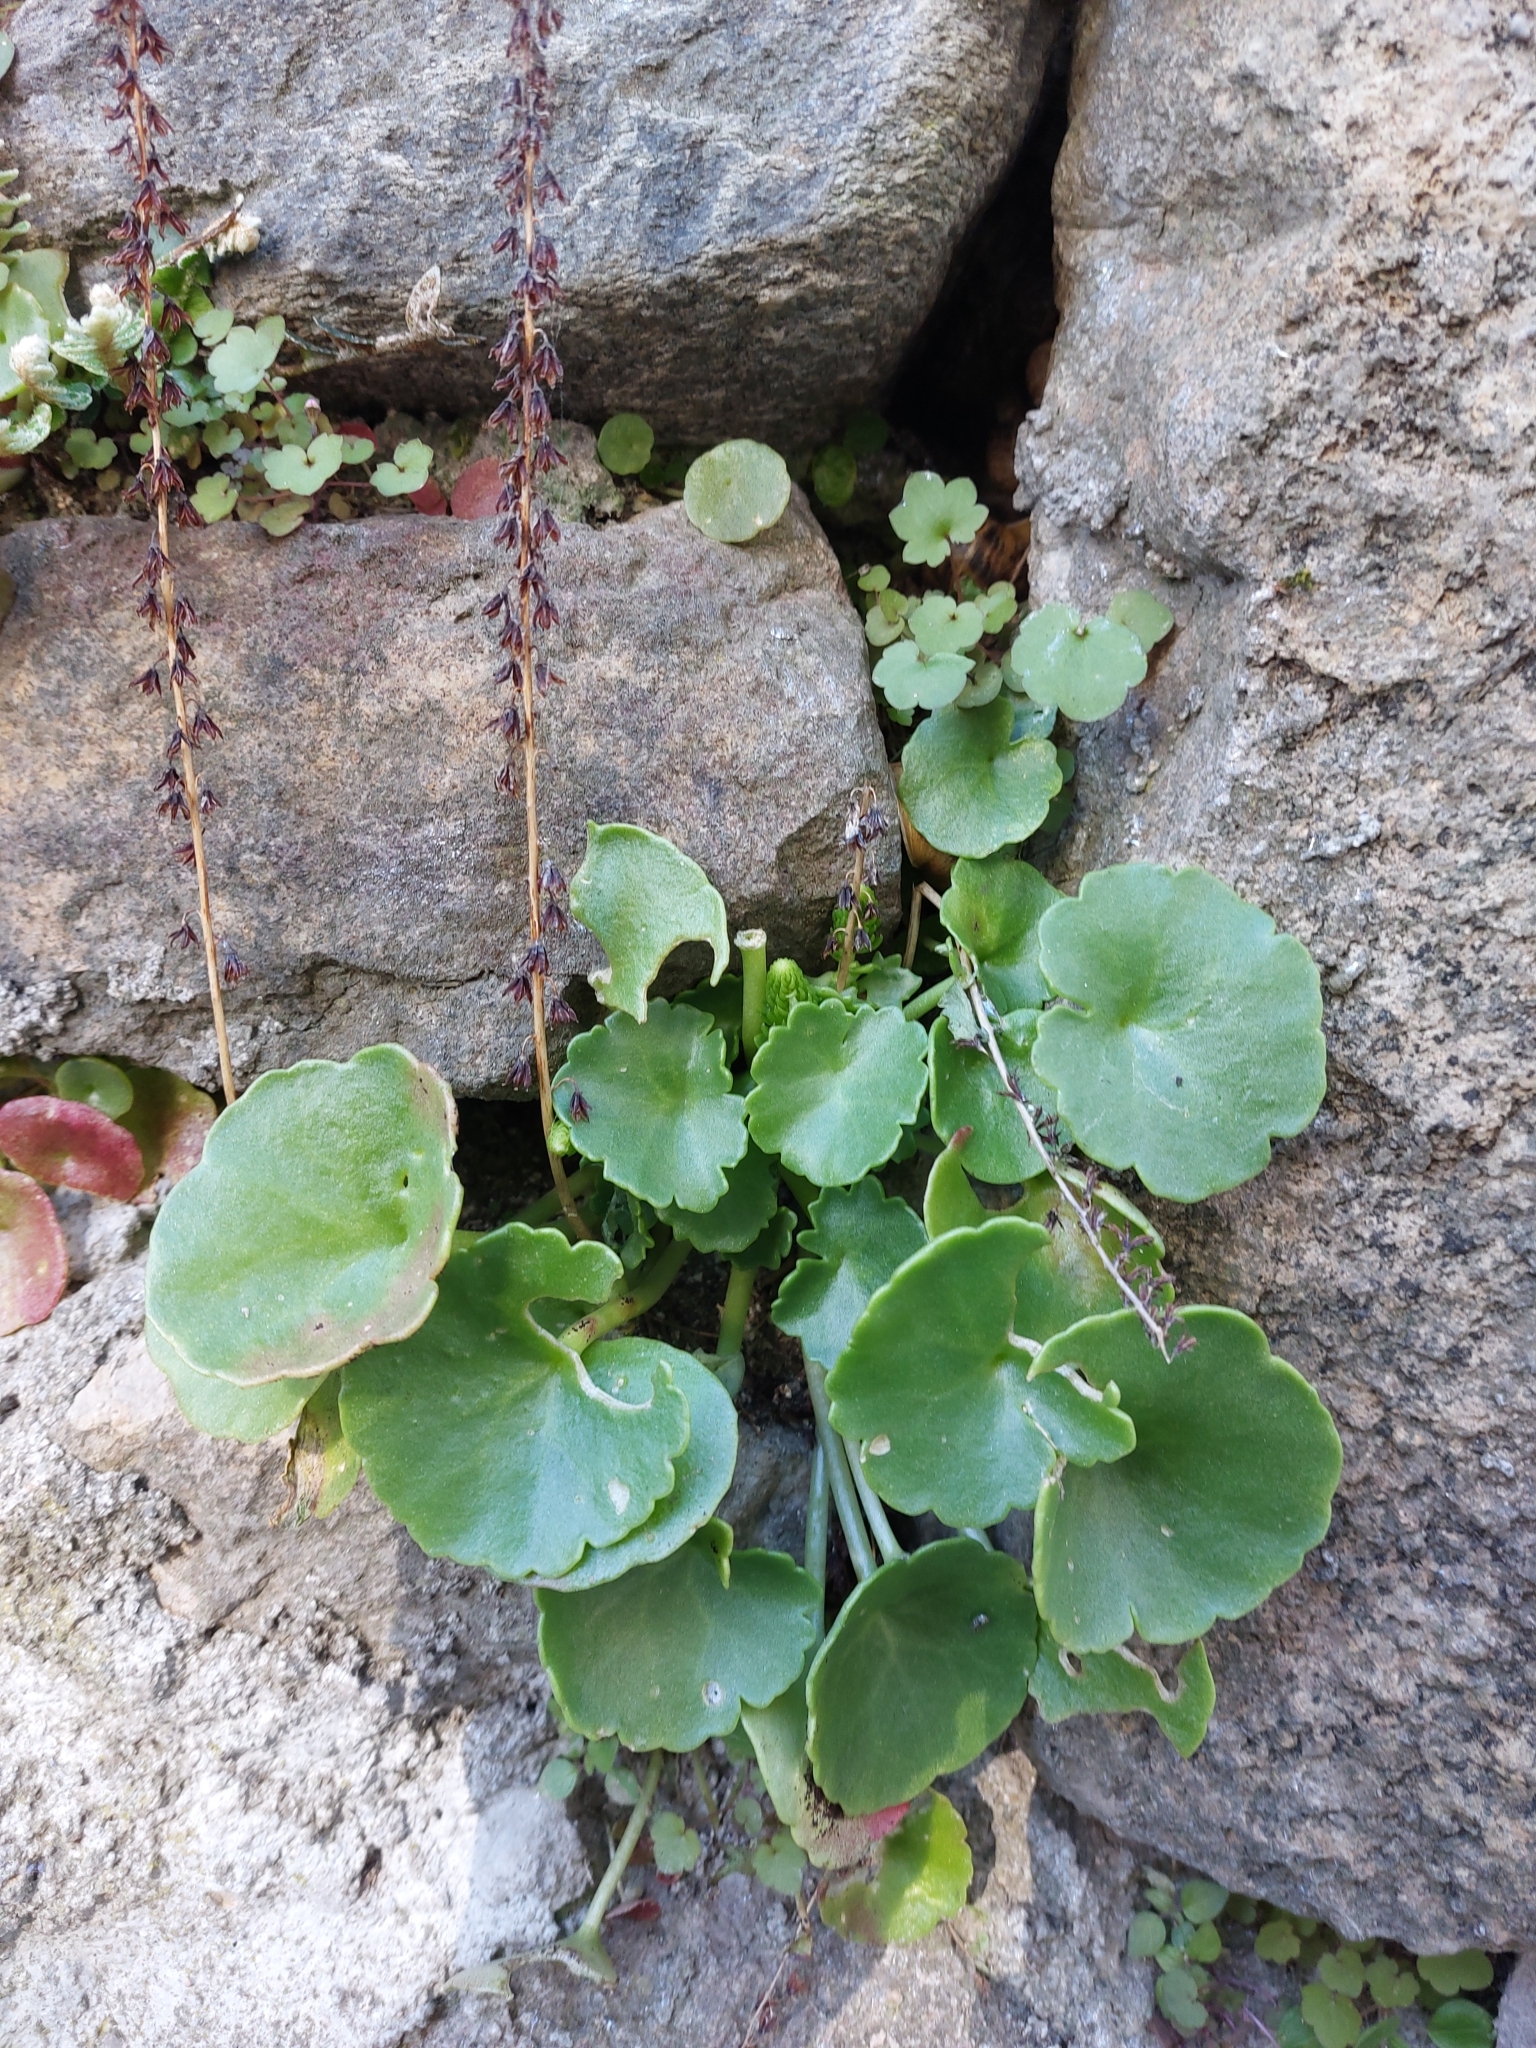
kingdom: Plantae
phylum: Tracheophyta
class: Magnoliopsida
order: Saxifragales
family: Crassulaceae
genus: Umbilicus
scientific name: Umbilicus rupestris
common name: Navelwort
